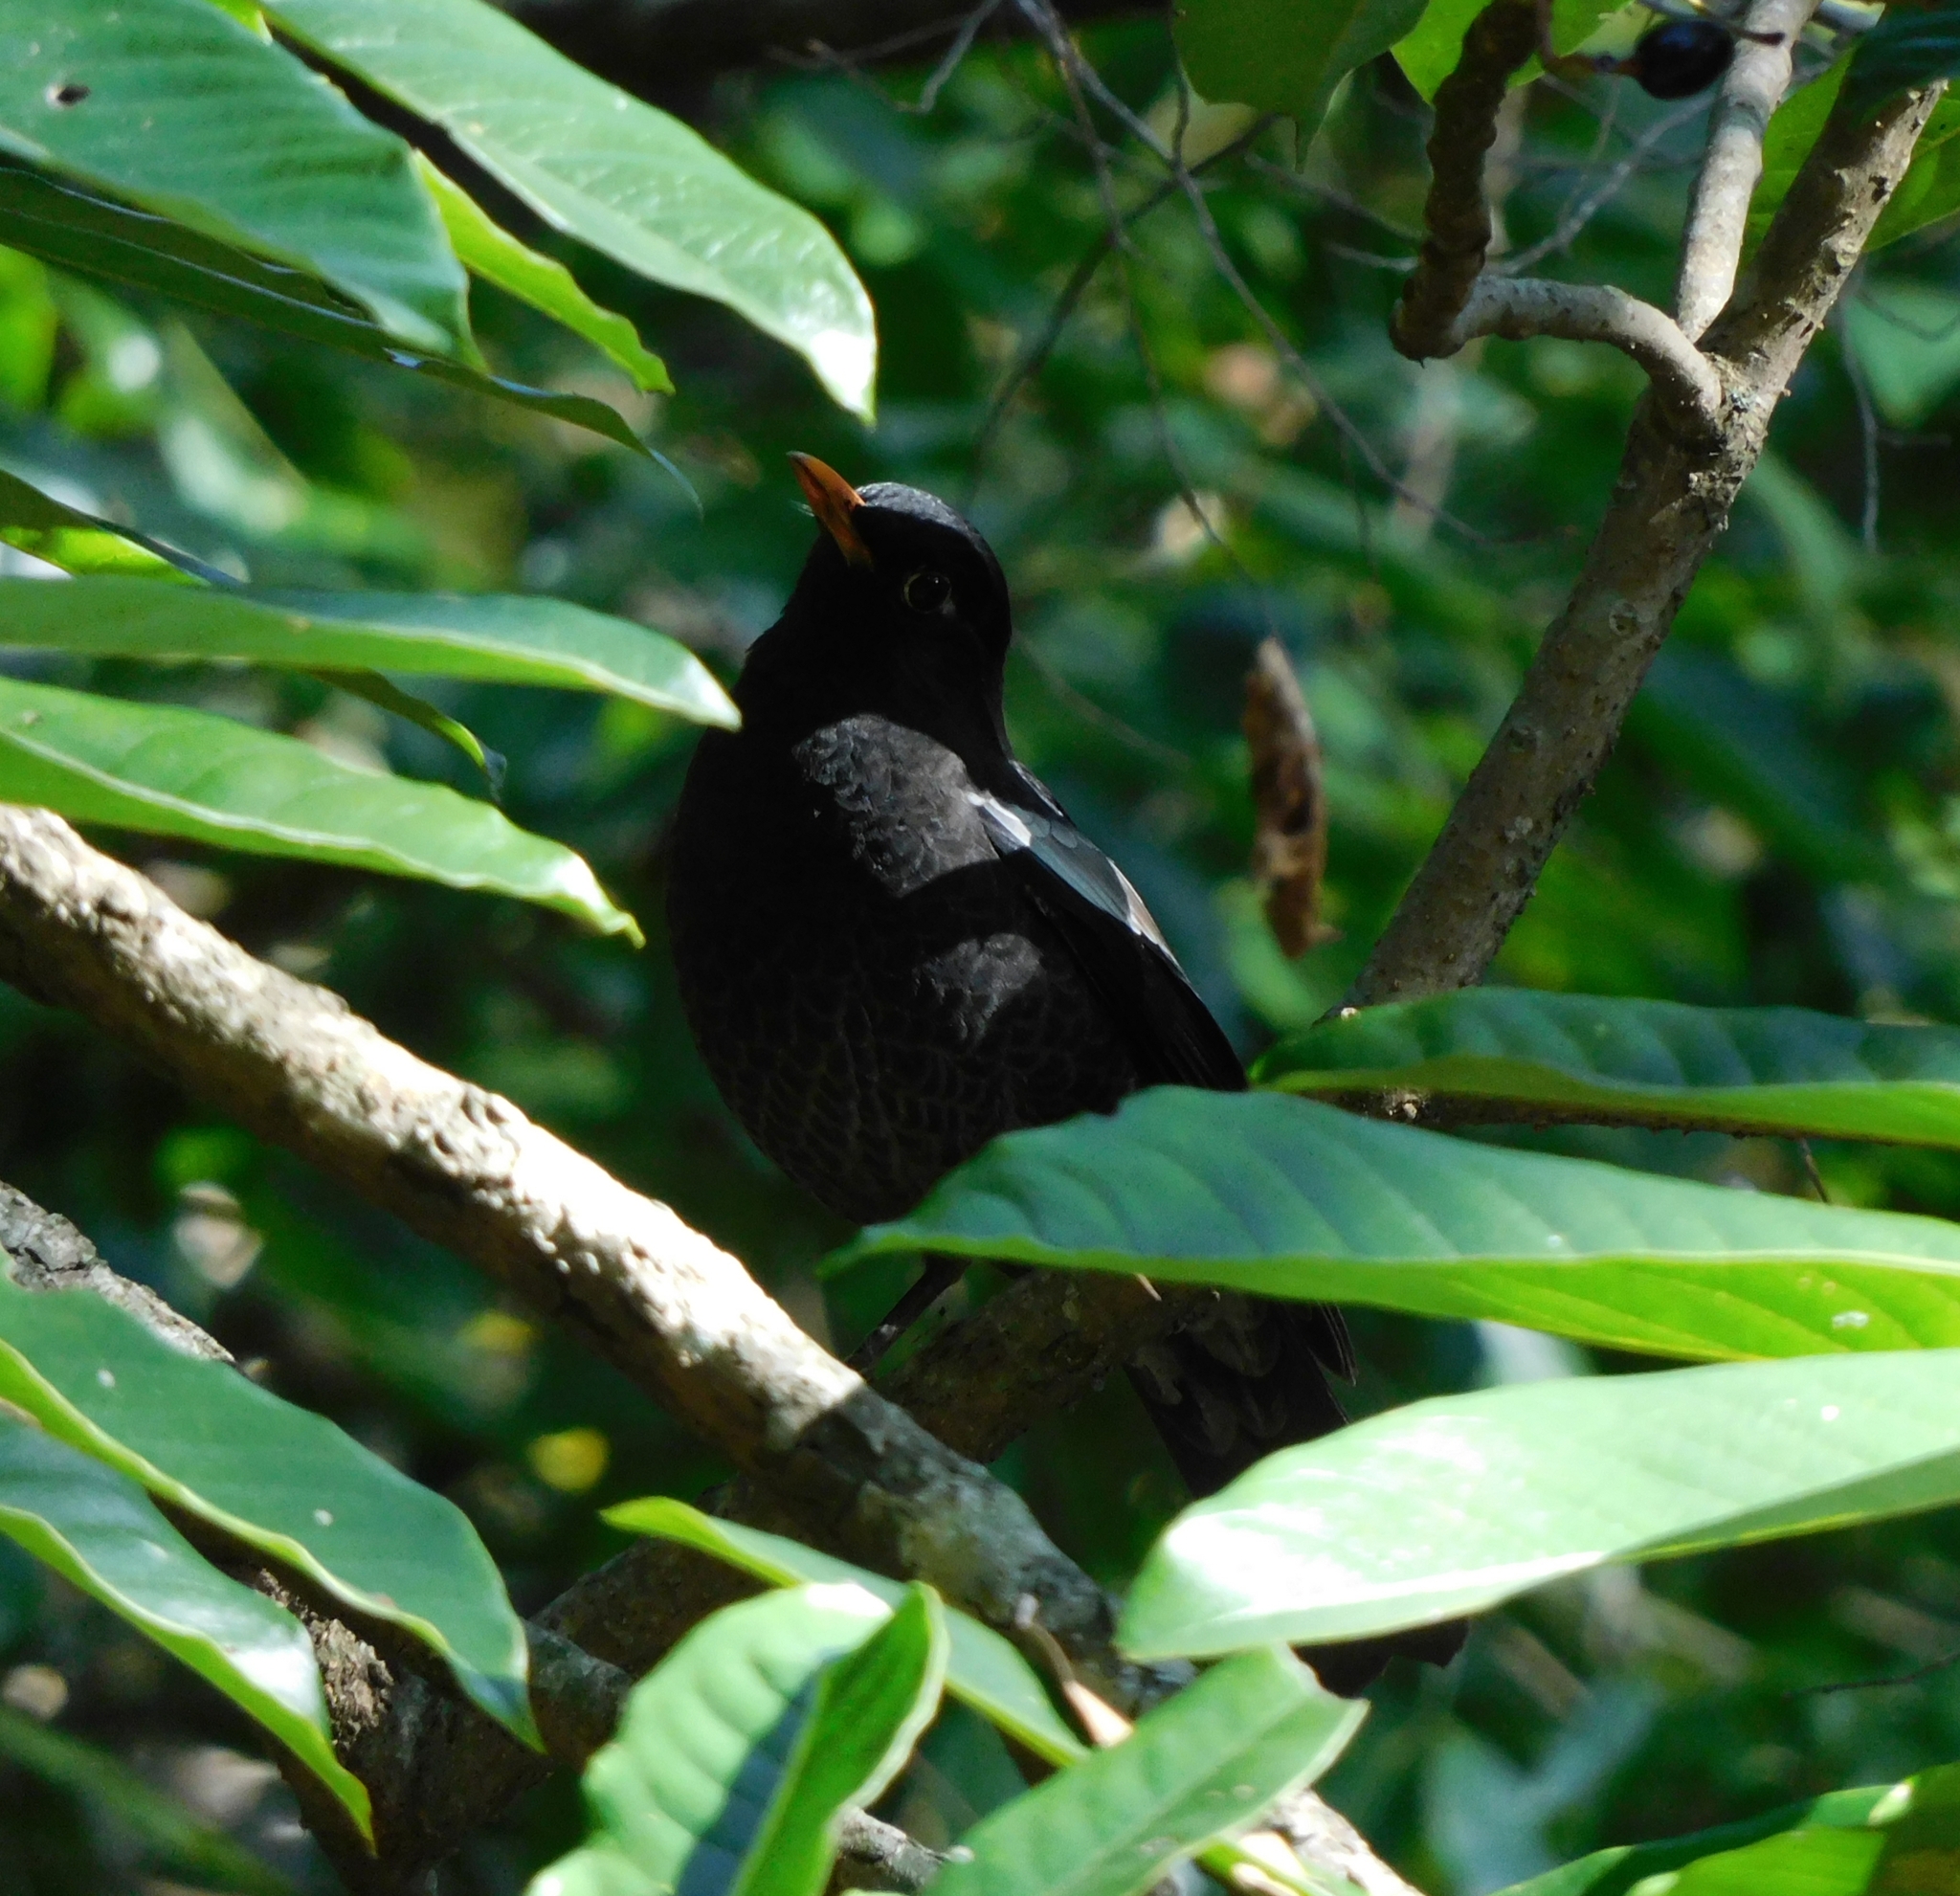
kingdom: Animalia
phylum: Chordata
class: Aves
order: Passeriformes
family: Turdidae
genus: Turdus
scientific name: Turdus boulboul
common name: Grey-winged blackbird
